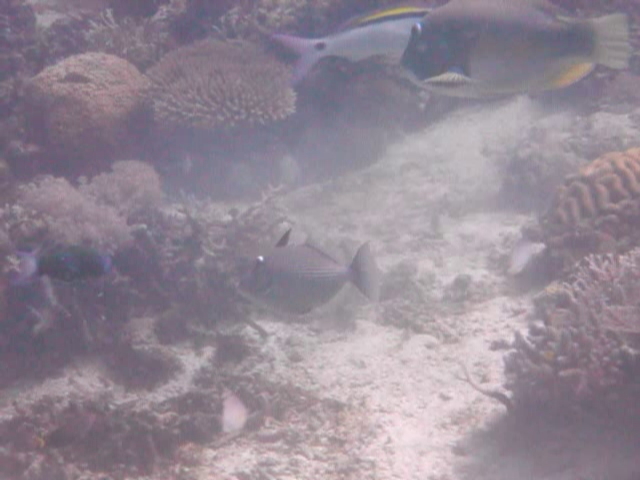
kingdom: Animalia
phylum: Chordata
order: Tetraodontiformes
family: Balistidae
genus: Sufflamen
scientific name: Sufflamen bursa
